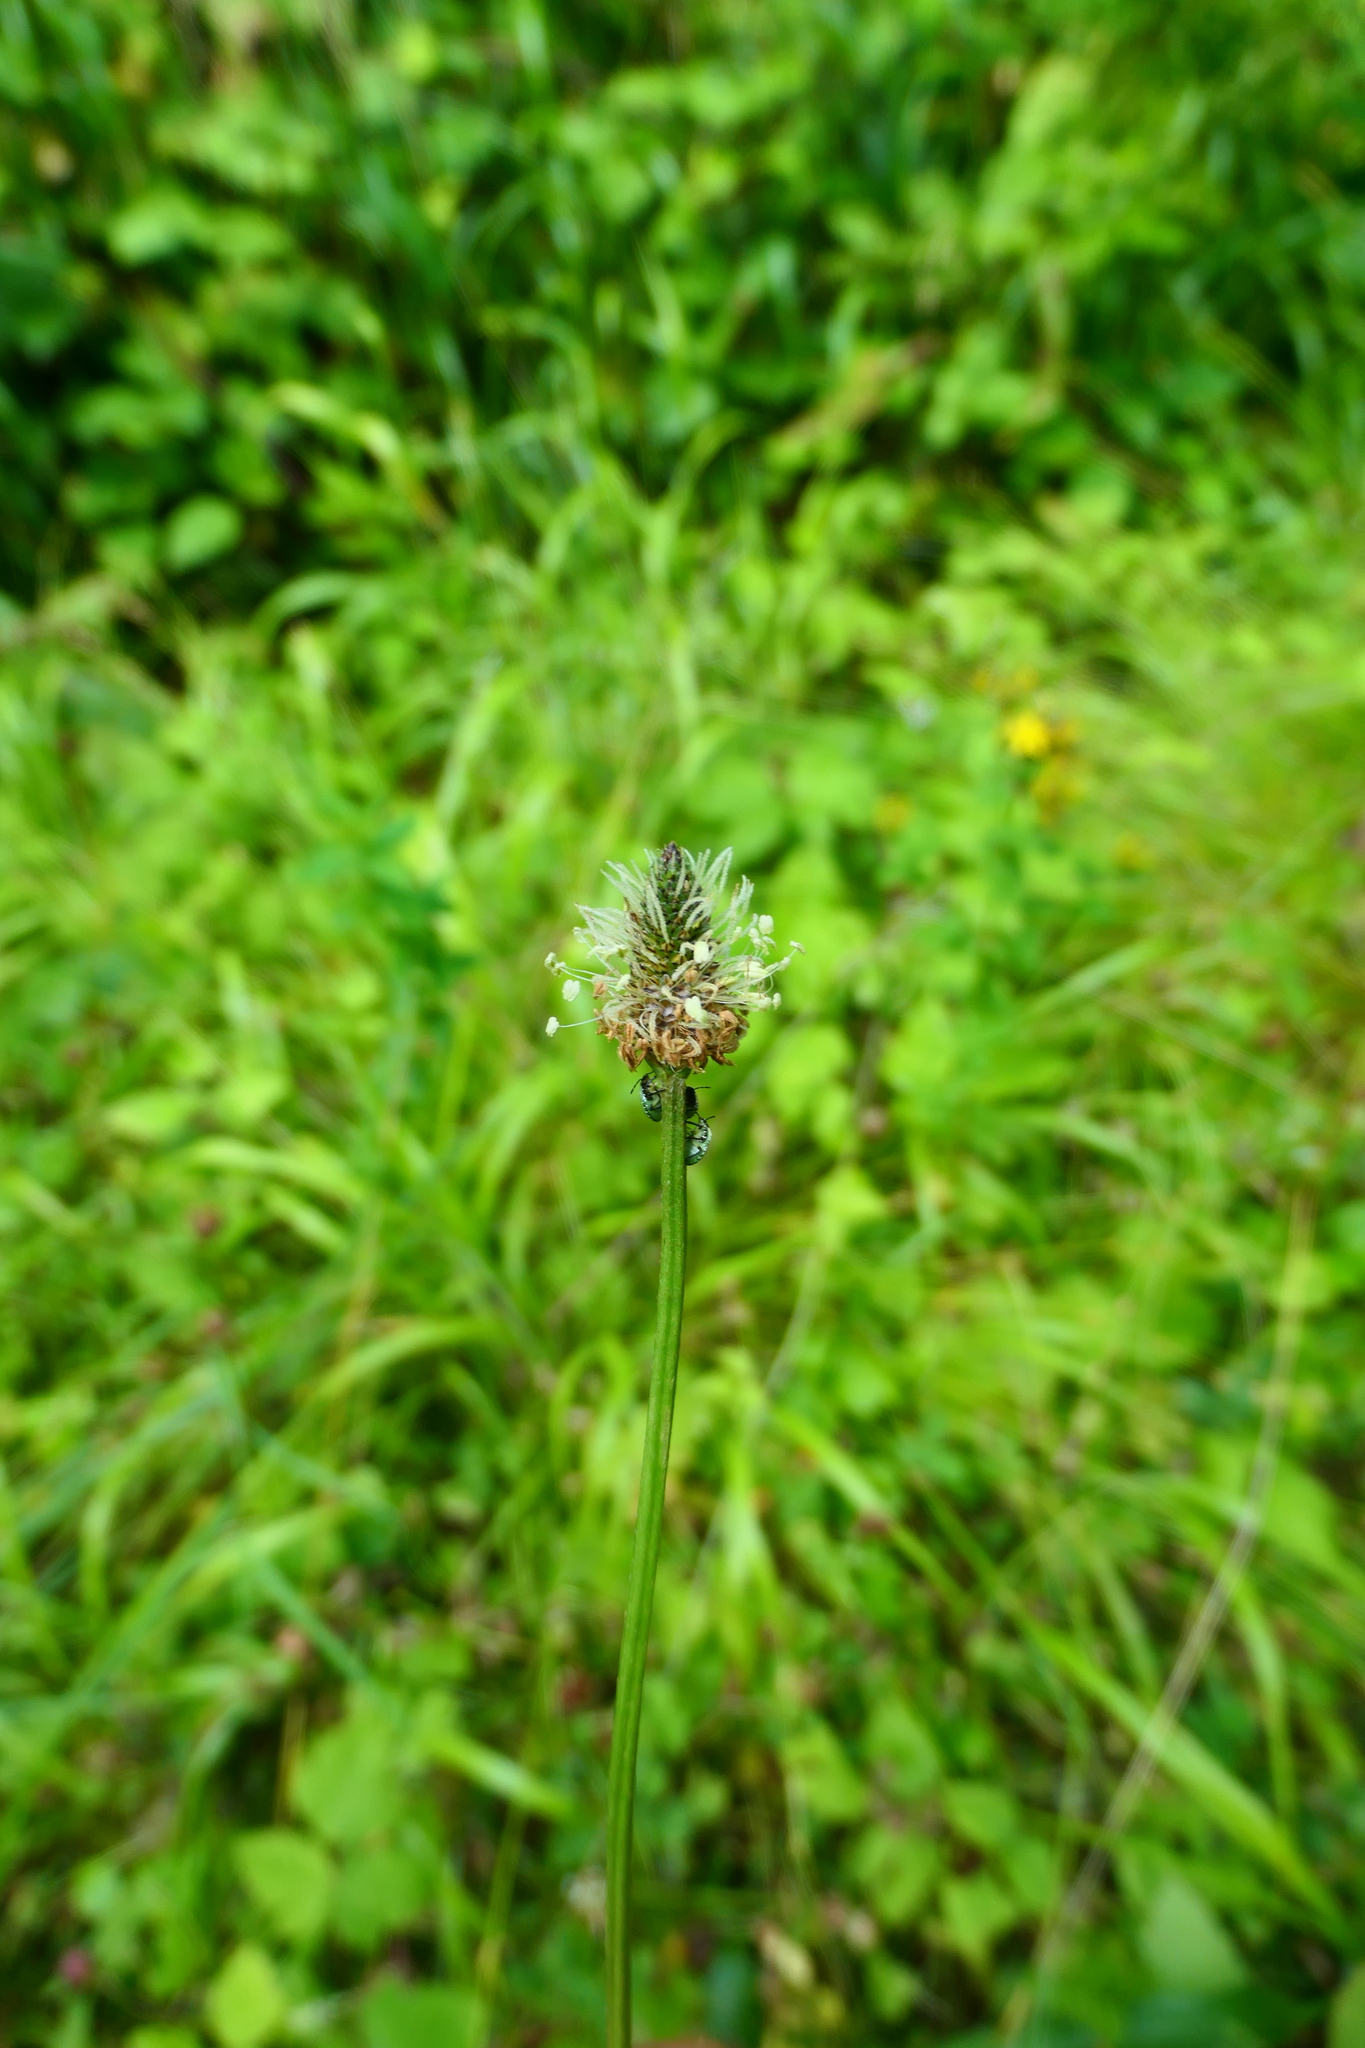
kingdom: Plantae
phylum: Tracheophyta
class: Magnoliopsida
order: Lamiales
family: Plantaginaceae
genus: Plantago
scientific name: Plantago lanceolata
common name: Ribwort plantain
